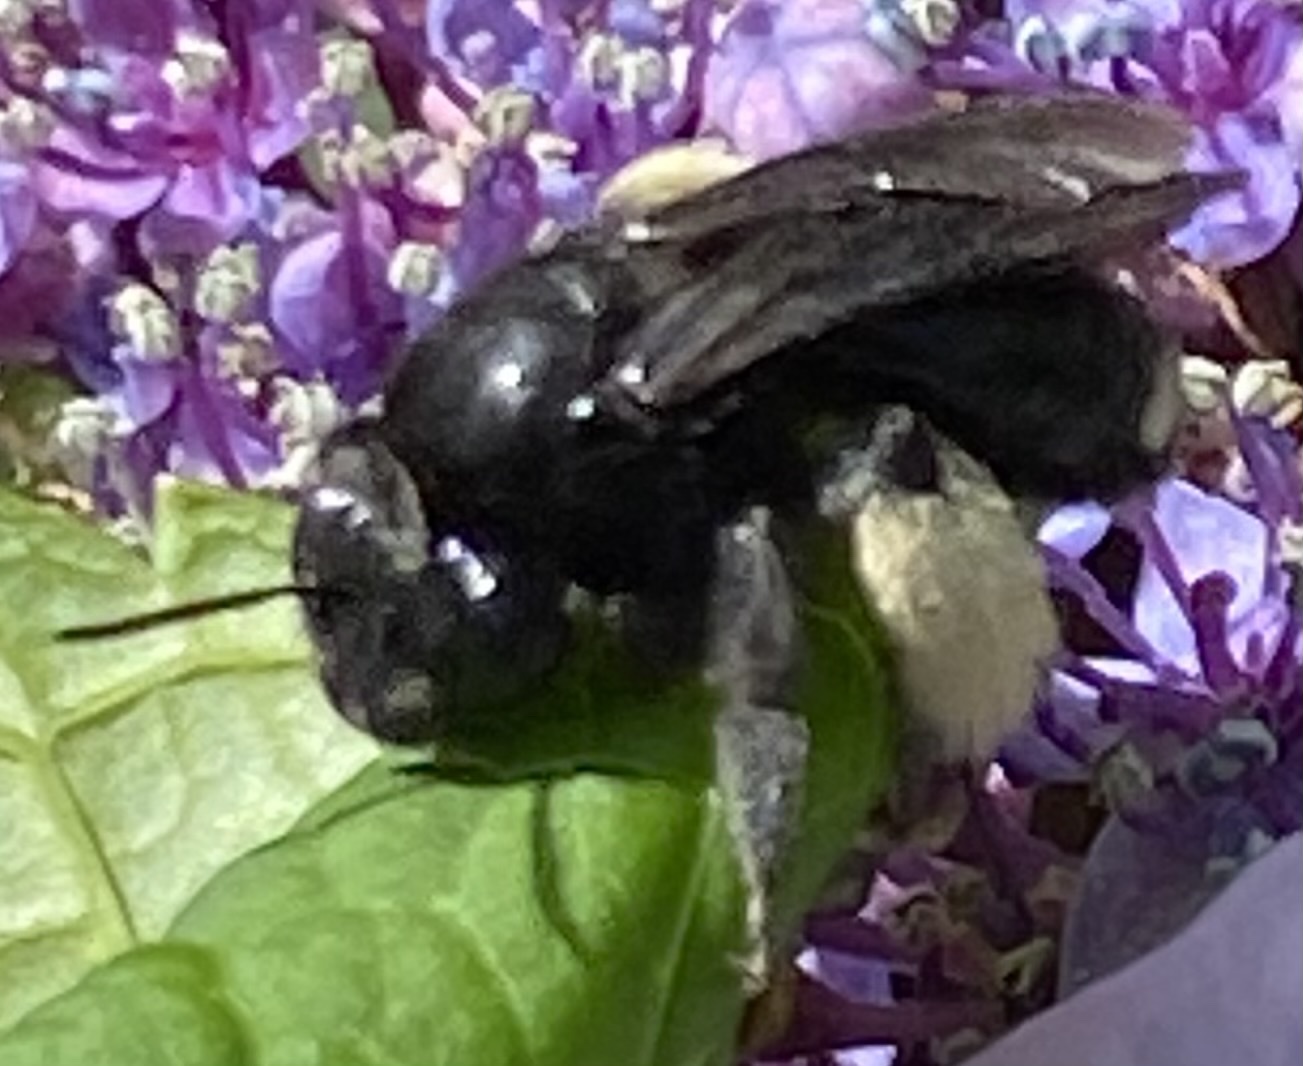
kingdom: Animalia
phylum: Arthropoda
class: Insecta
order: Hymenoptera
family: Apidae
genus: Melissodes
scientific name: Melissodes bimaculatus
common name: Two-spotted long-horned bee
